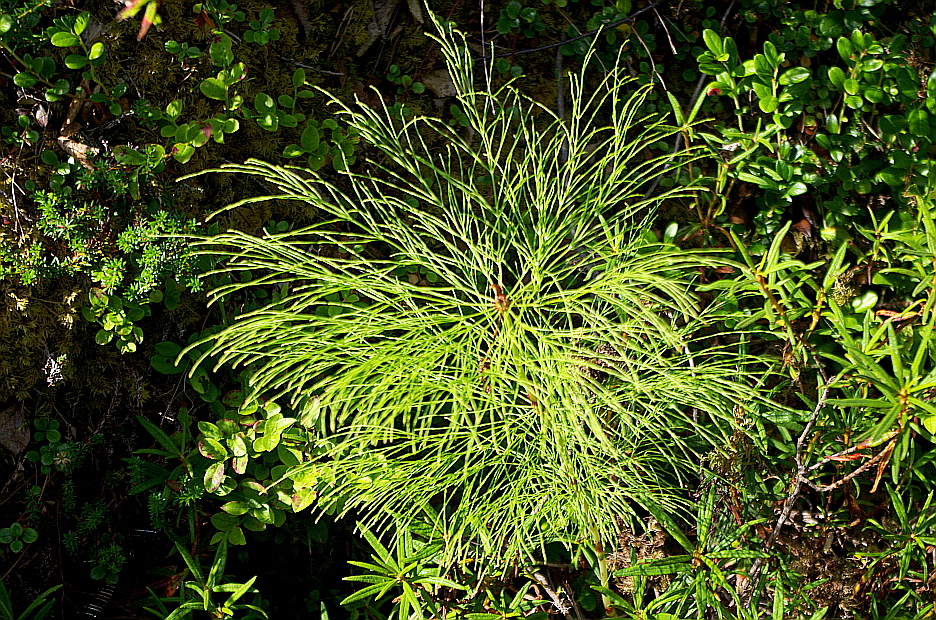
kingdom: Plantae
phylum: Tracheophyta
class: Polypodiopsida
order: Equisetales
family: Equisetaceae
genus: Equisetum
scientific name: Equisetum sylvaticum
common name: Wood horsetail
